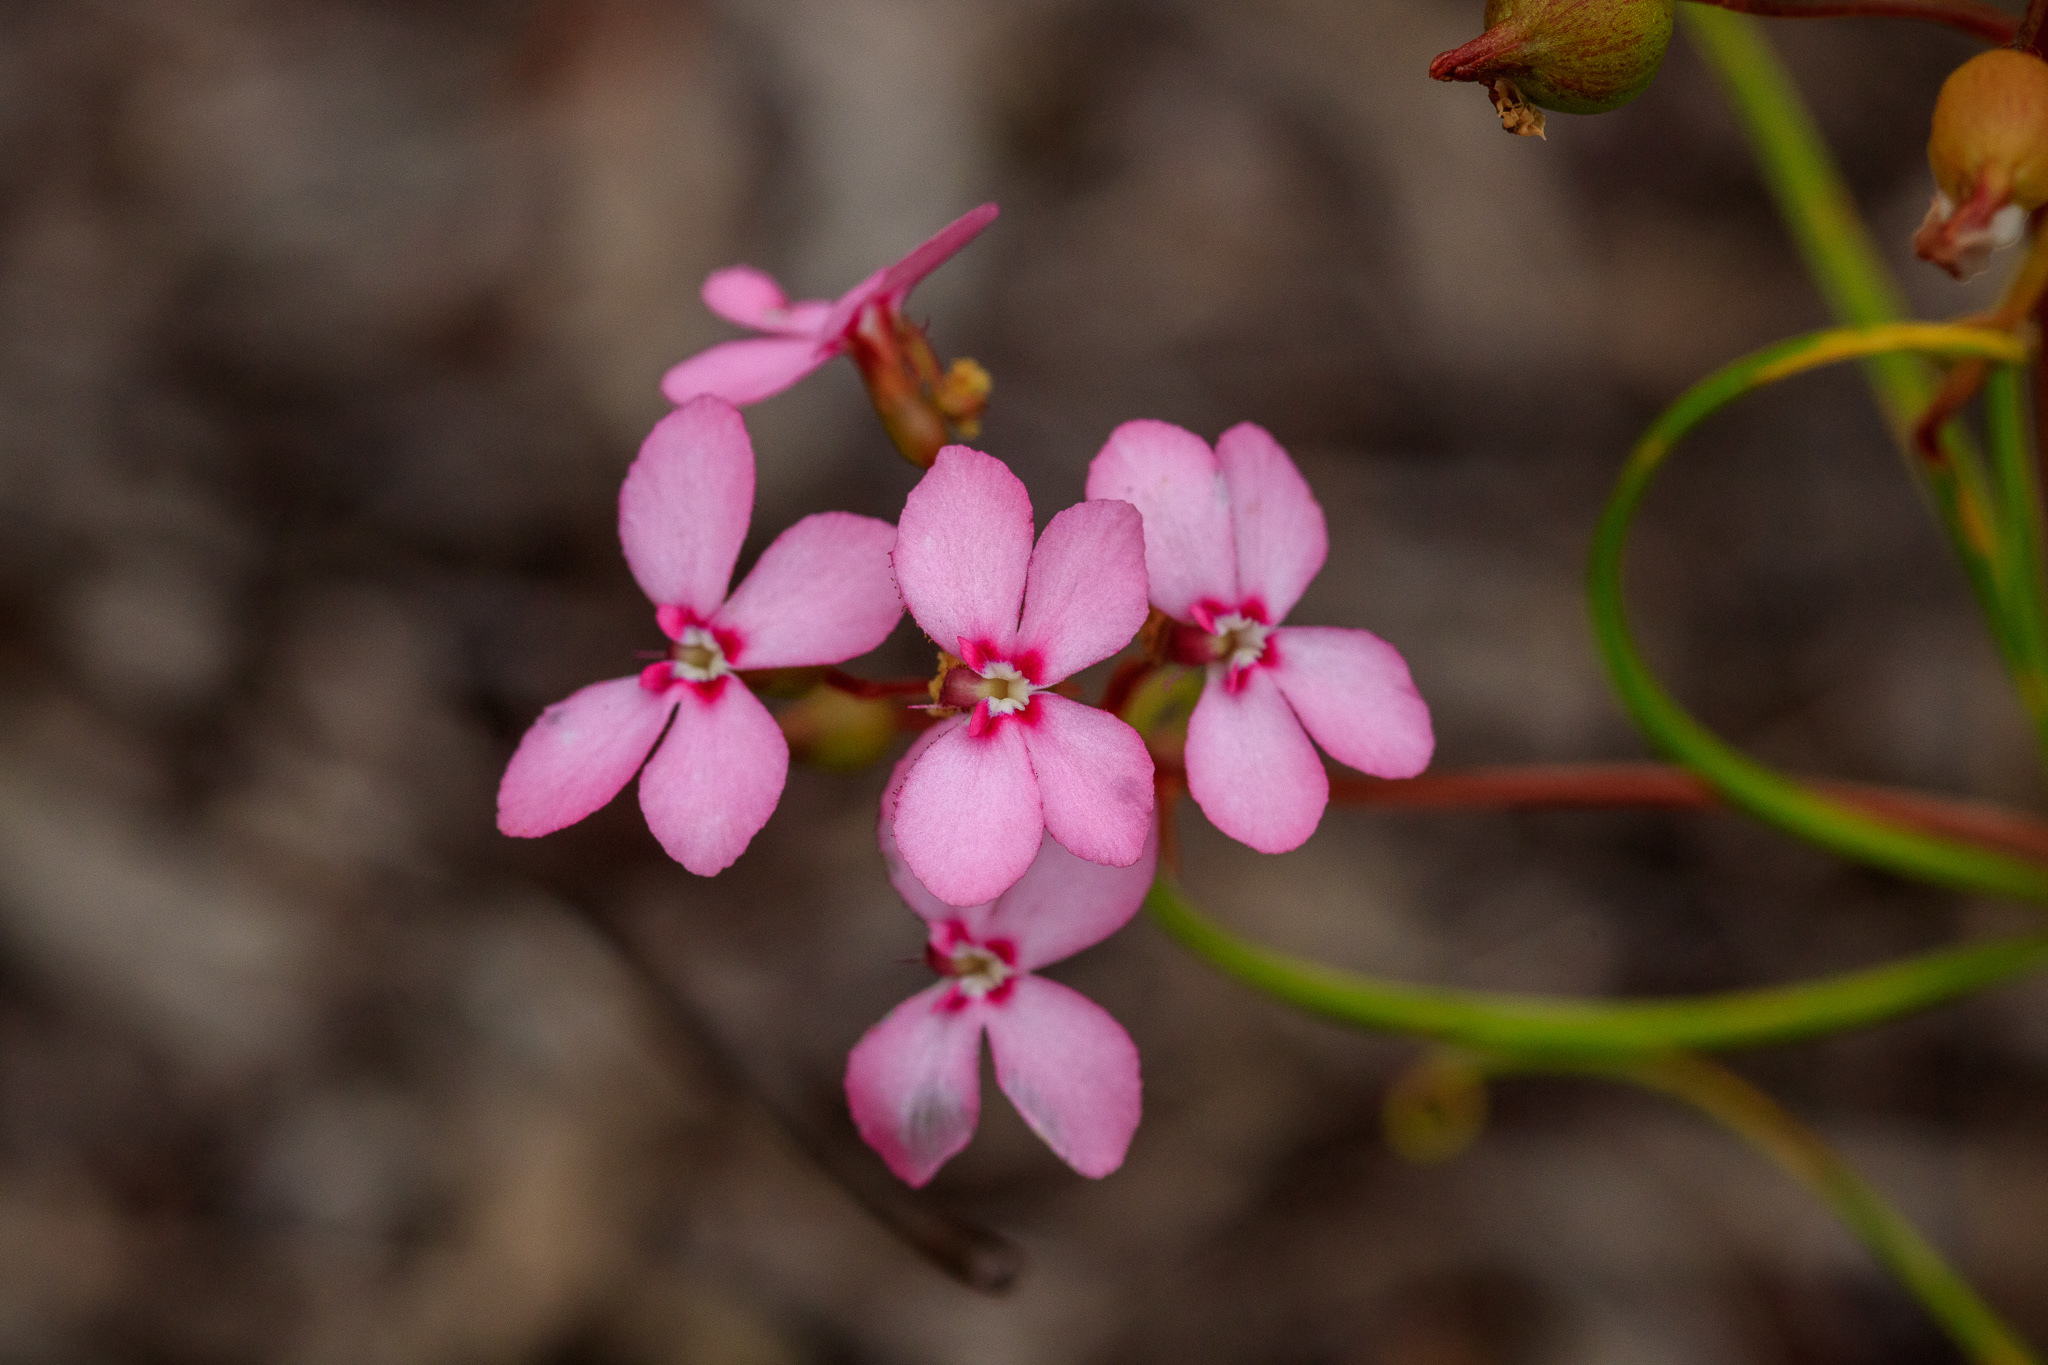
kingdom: Plantae
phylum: Tracheophyta
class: Magnoliopsida
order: Asterales
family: Stylidiaceae
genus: Stylidium
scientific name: Stylidium scandens
